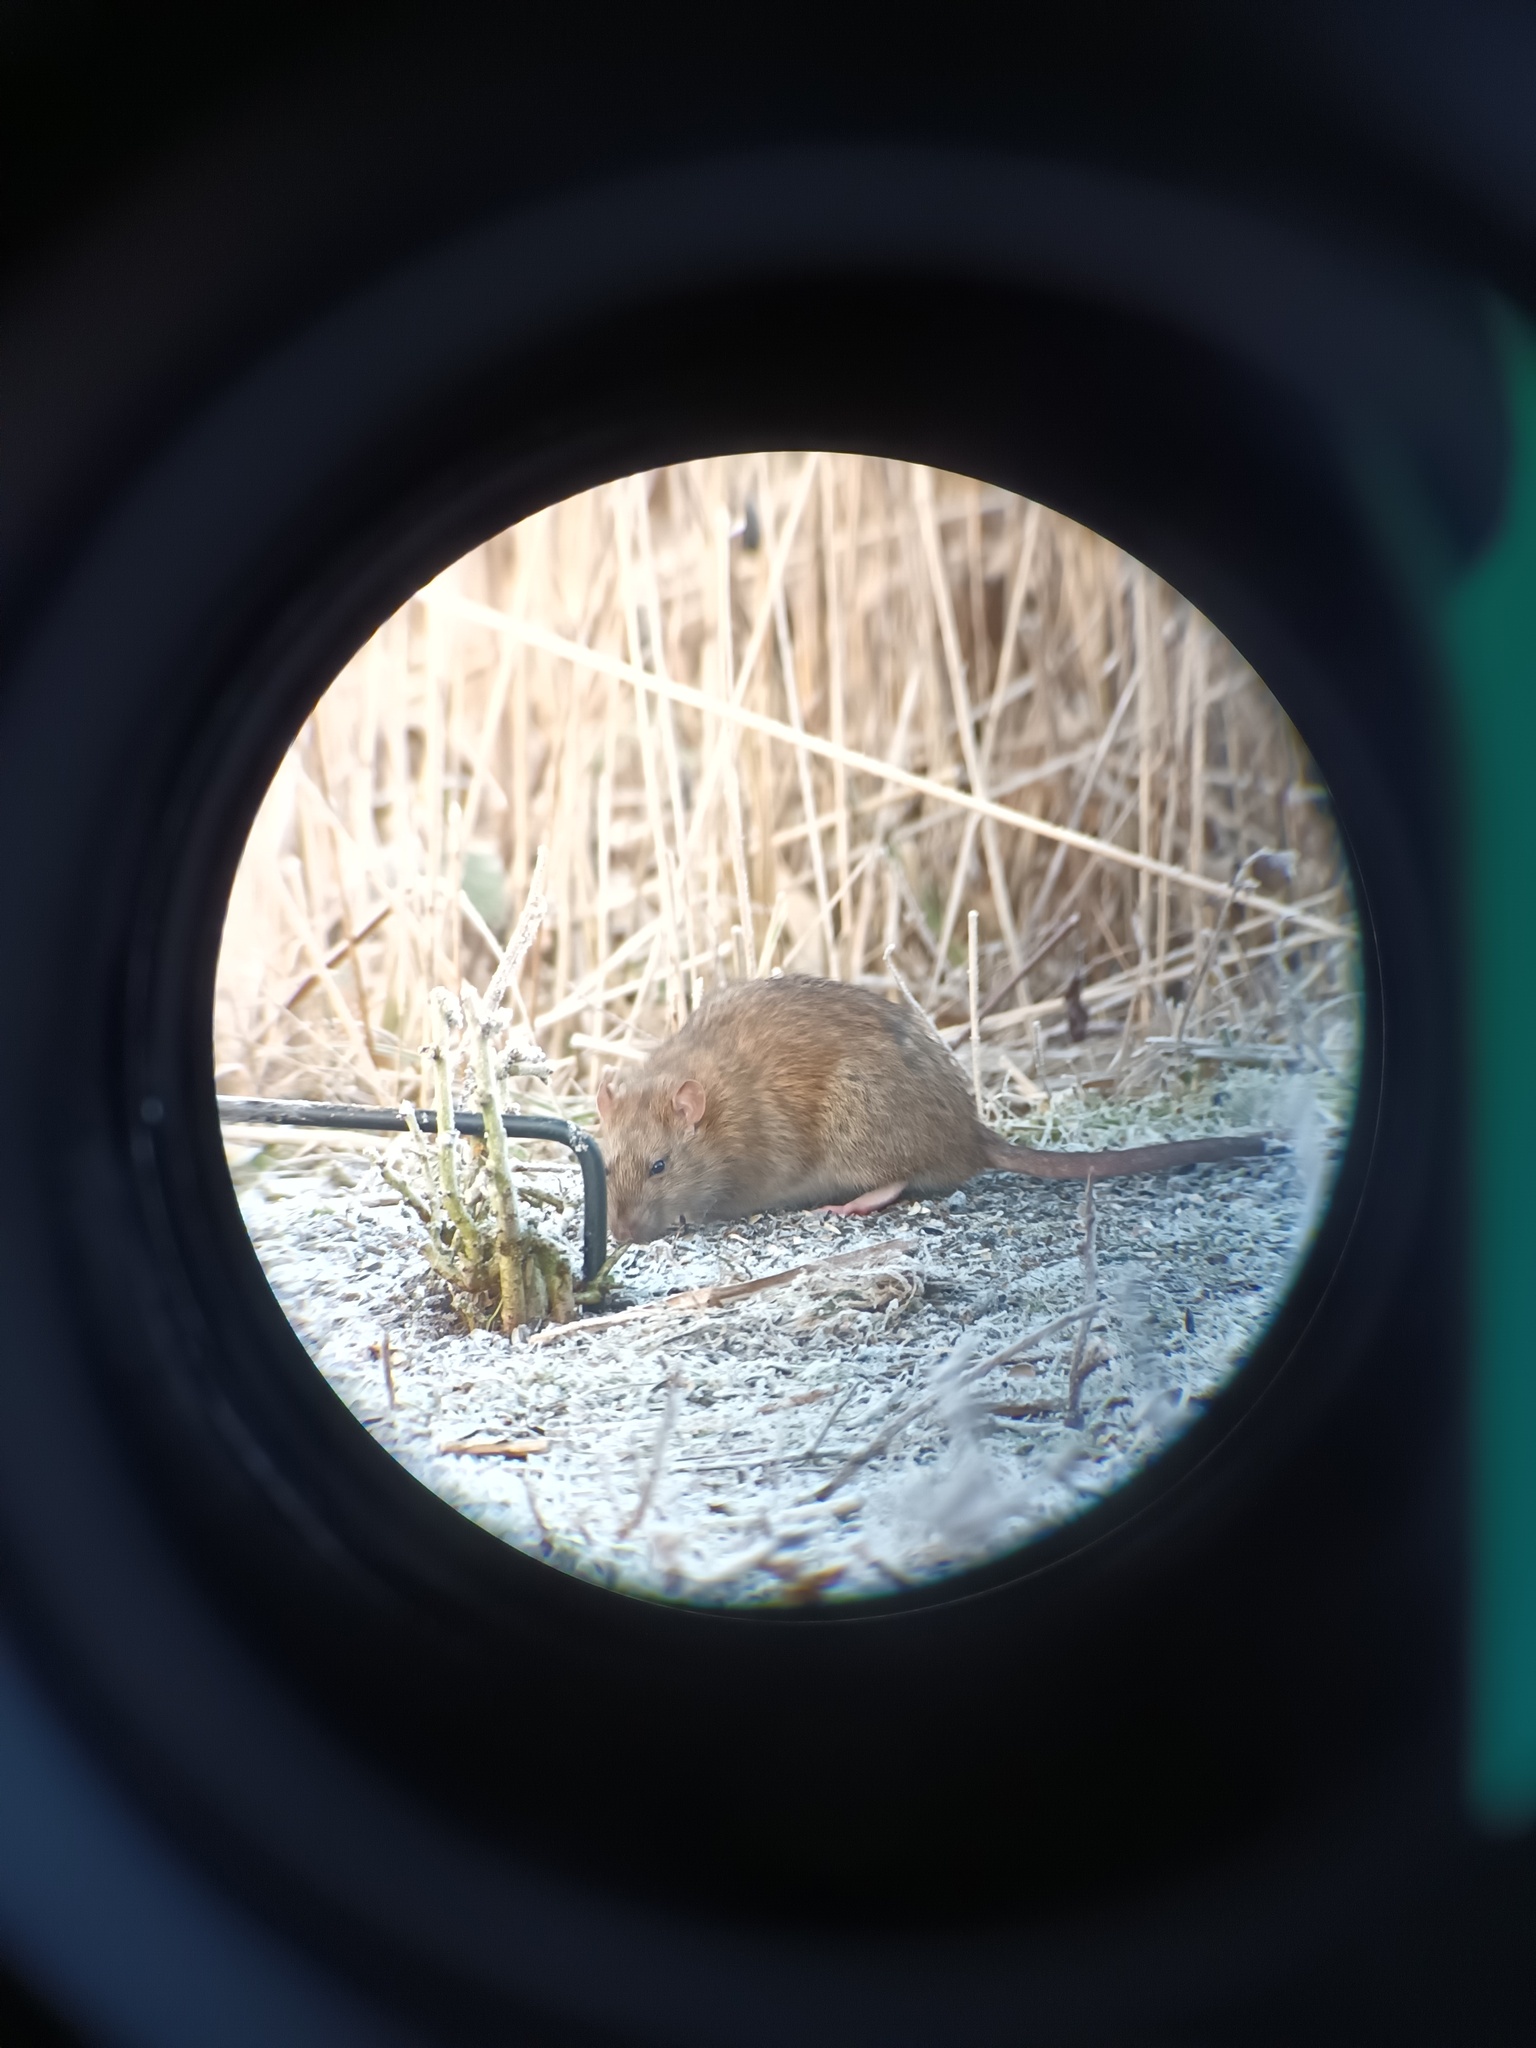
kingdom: Animalia
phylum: Chordata
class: Mammalia
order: Rodentia
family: Muridae
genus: Rattus
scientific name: Rattus norvegicus
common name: Brown rat
